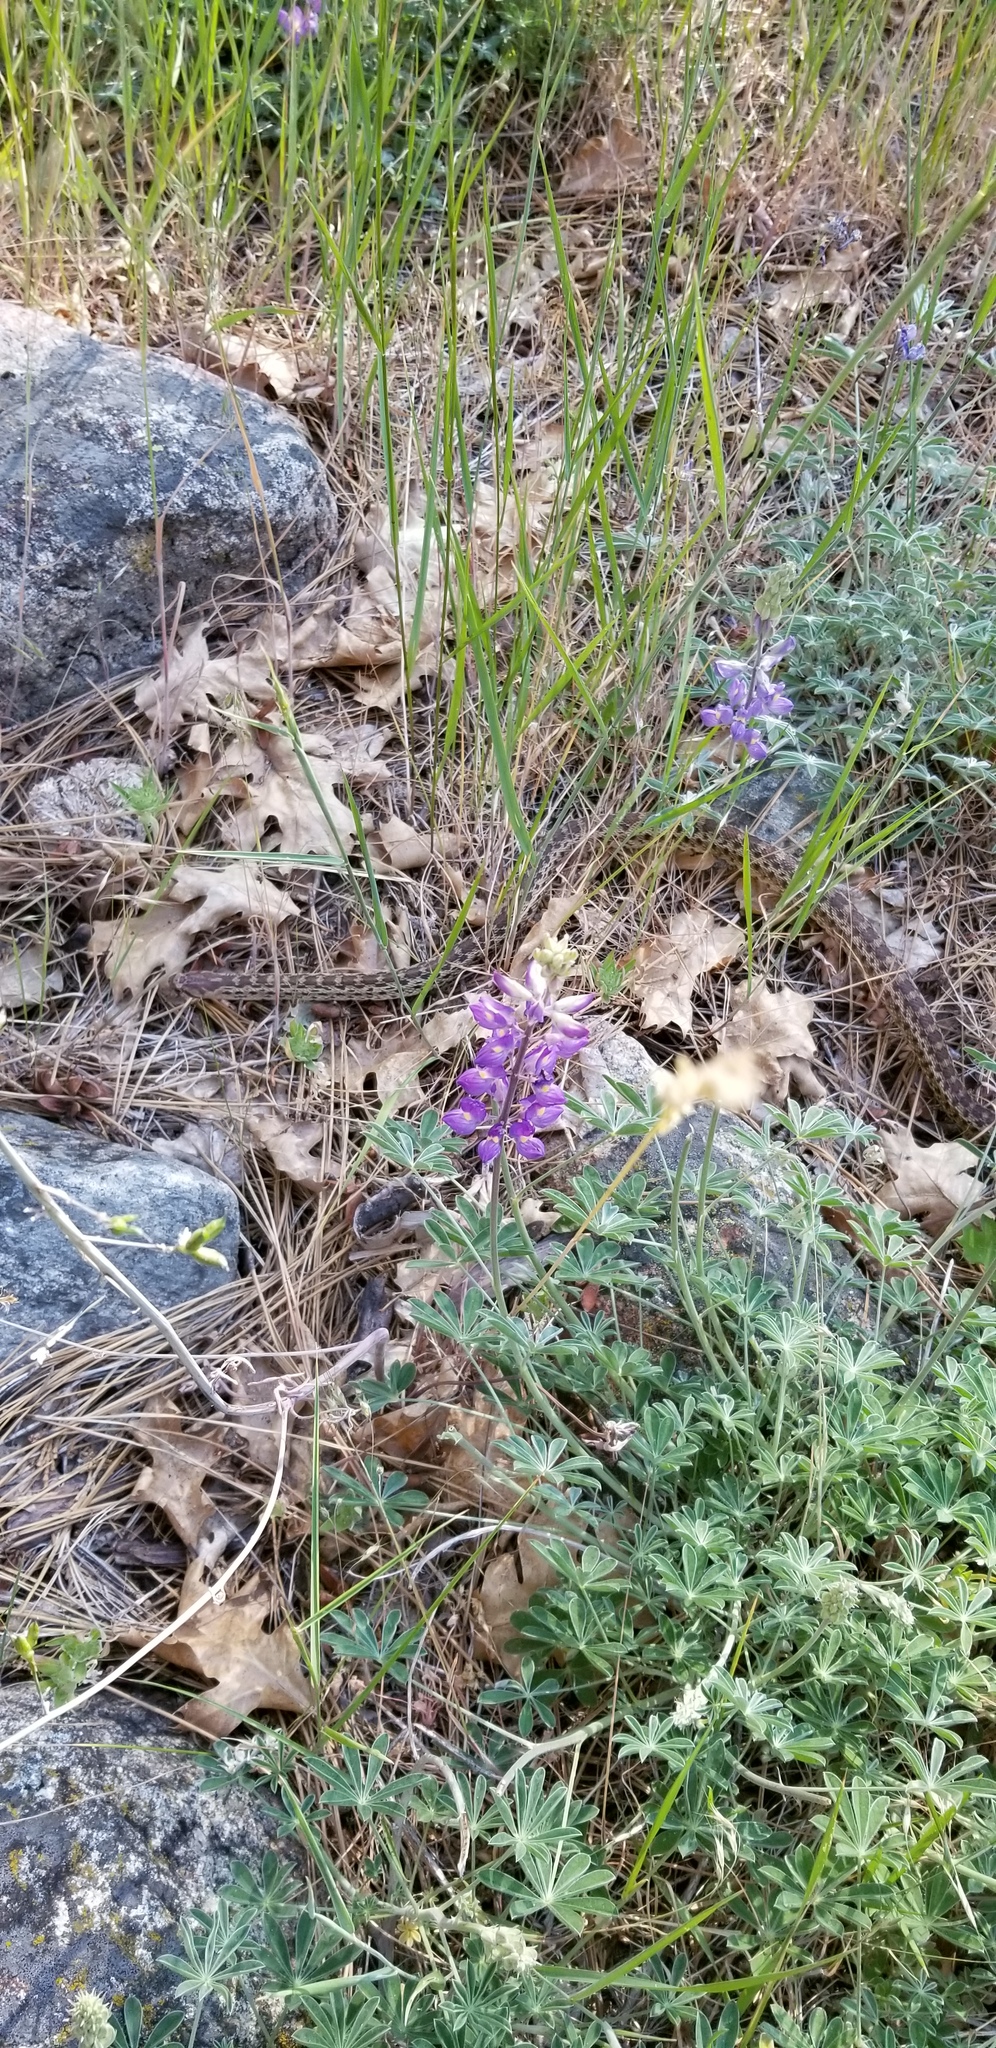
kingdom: Animalia
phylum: Chordata
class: Squamata
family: Colubridae
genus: Pituophis
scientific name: Pituophis catenifer
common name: Gopher snake
